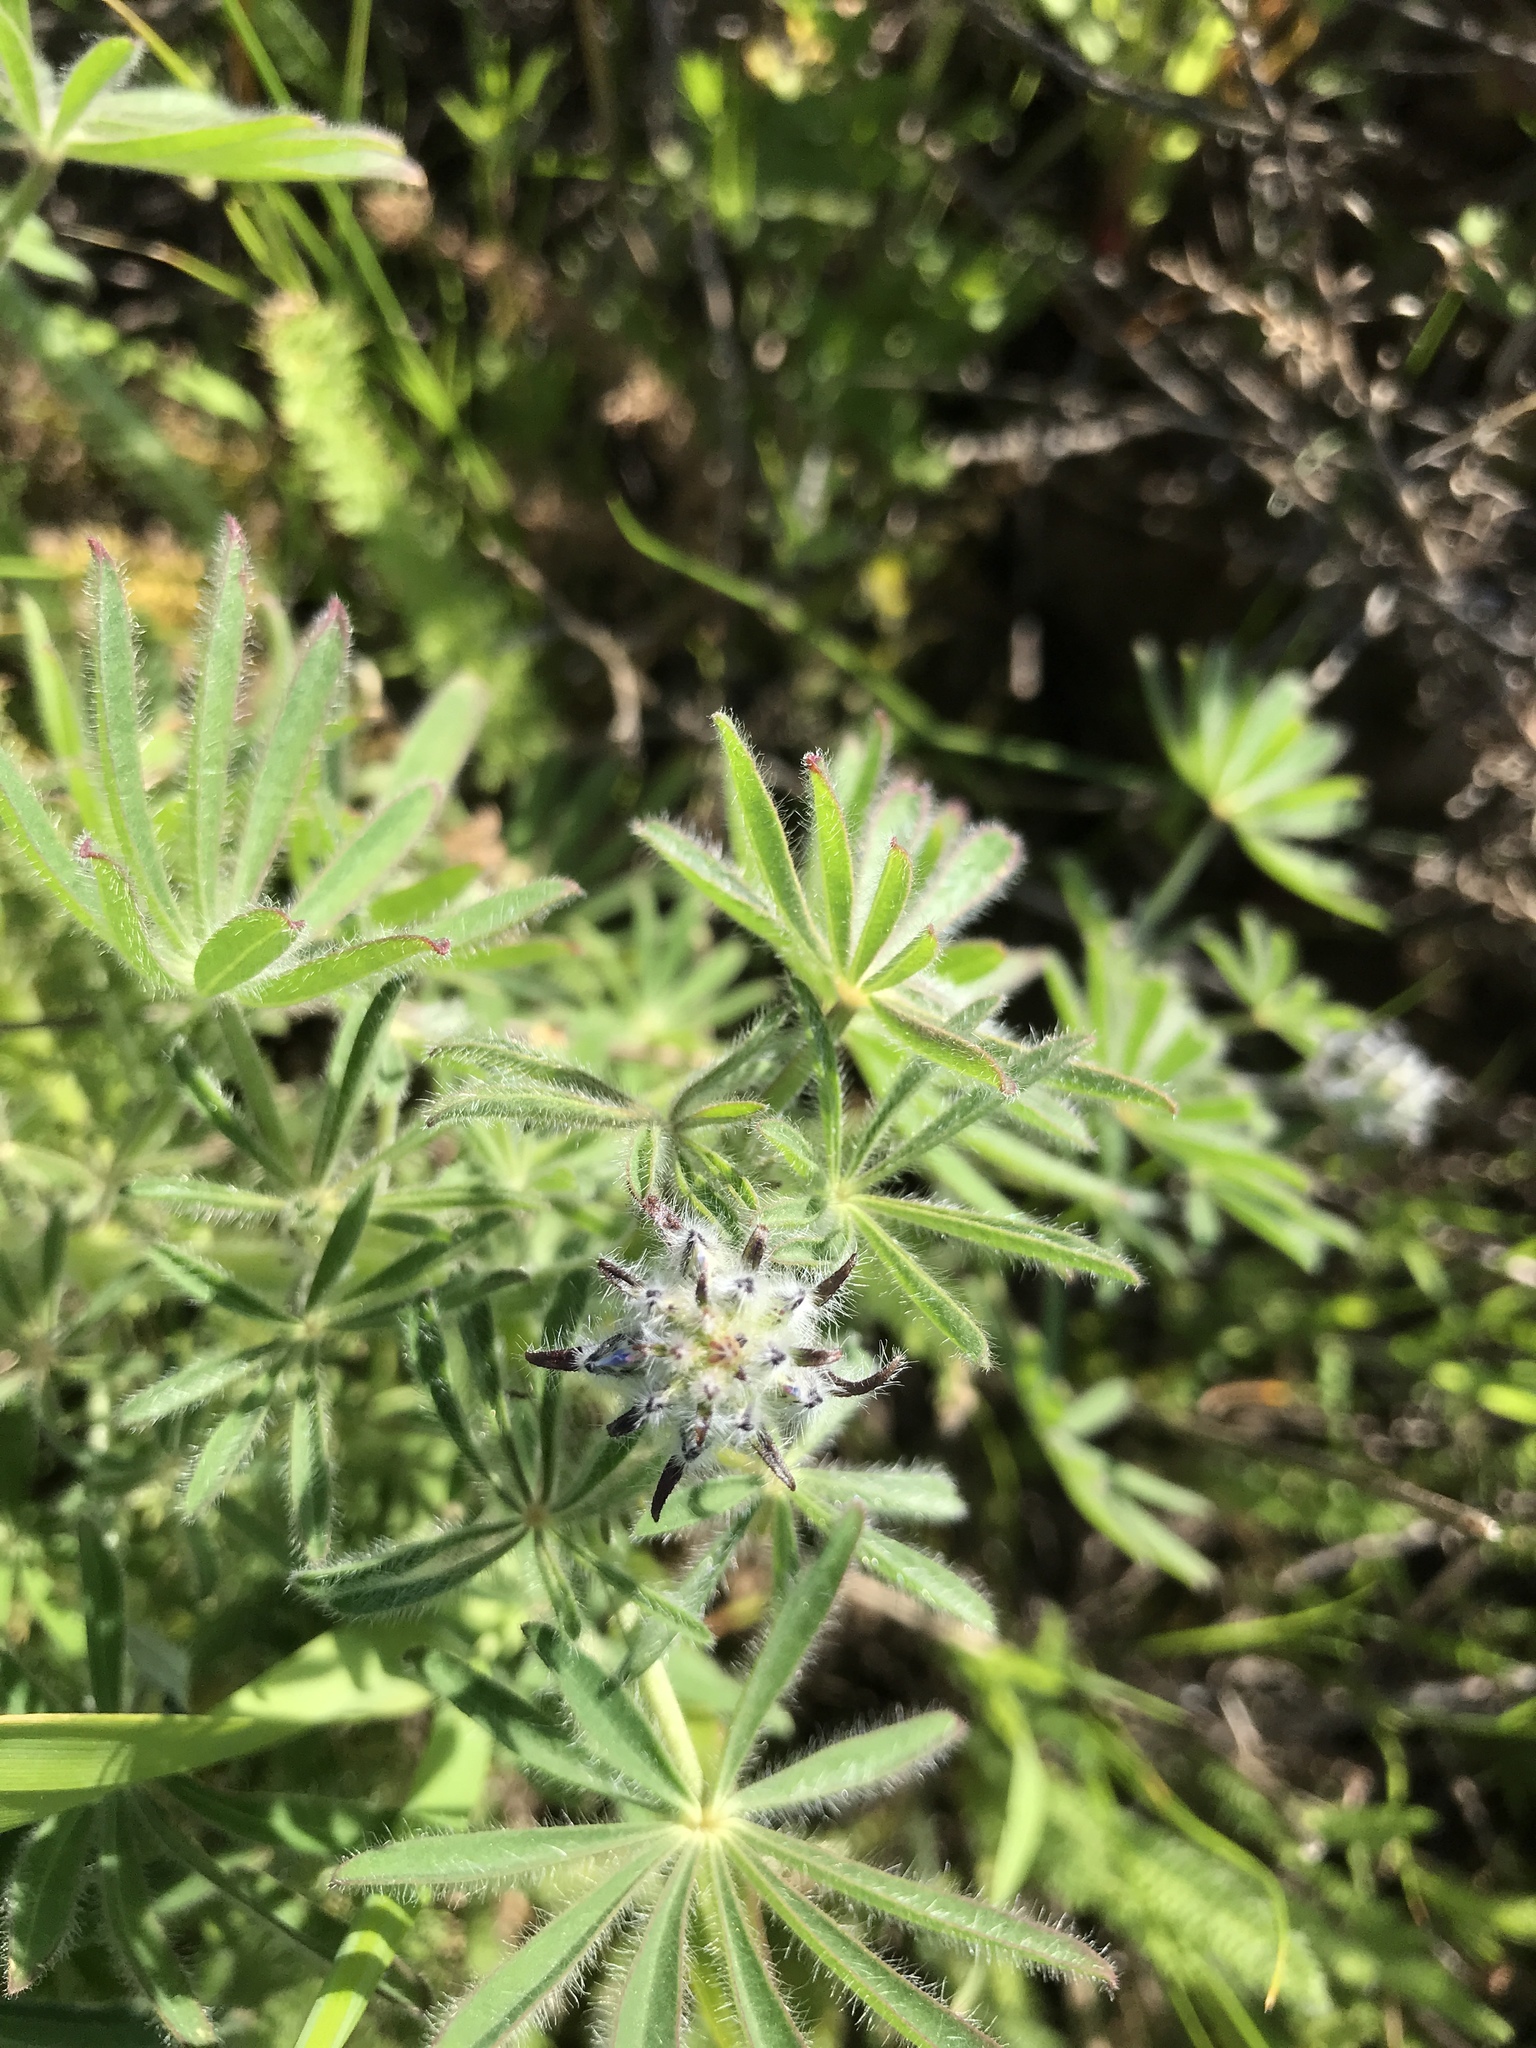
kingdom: Plantae
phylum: Tracheophyta
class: Magnoliopsida
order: Fabales
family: Fabaceae
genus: Lupinus
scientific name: Lupinus guadalupensis
